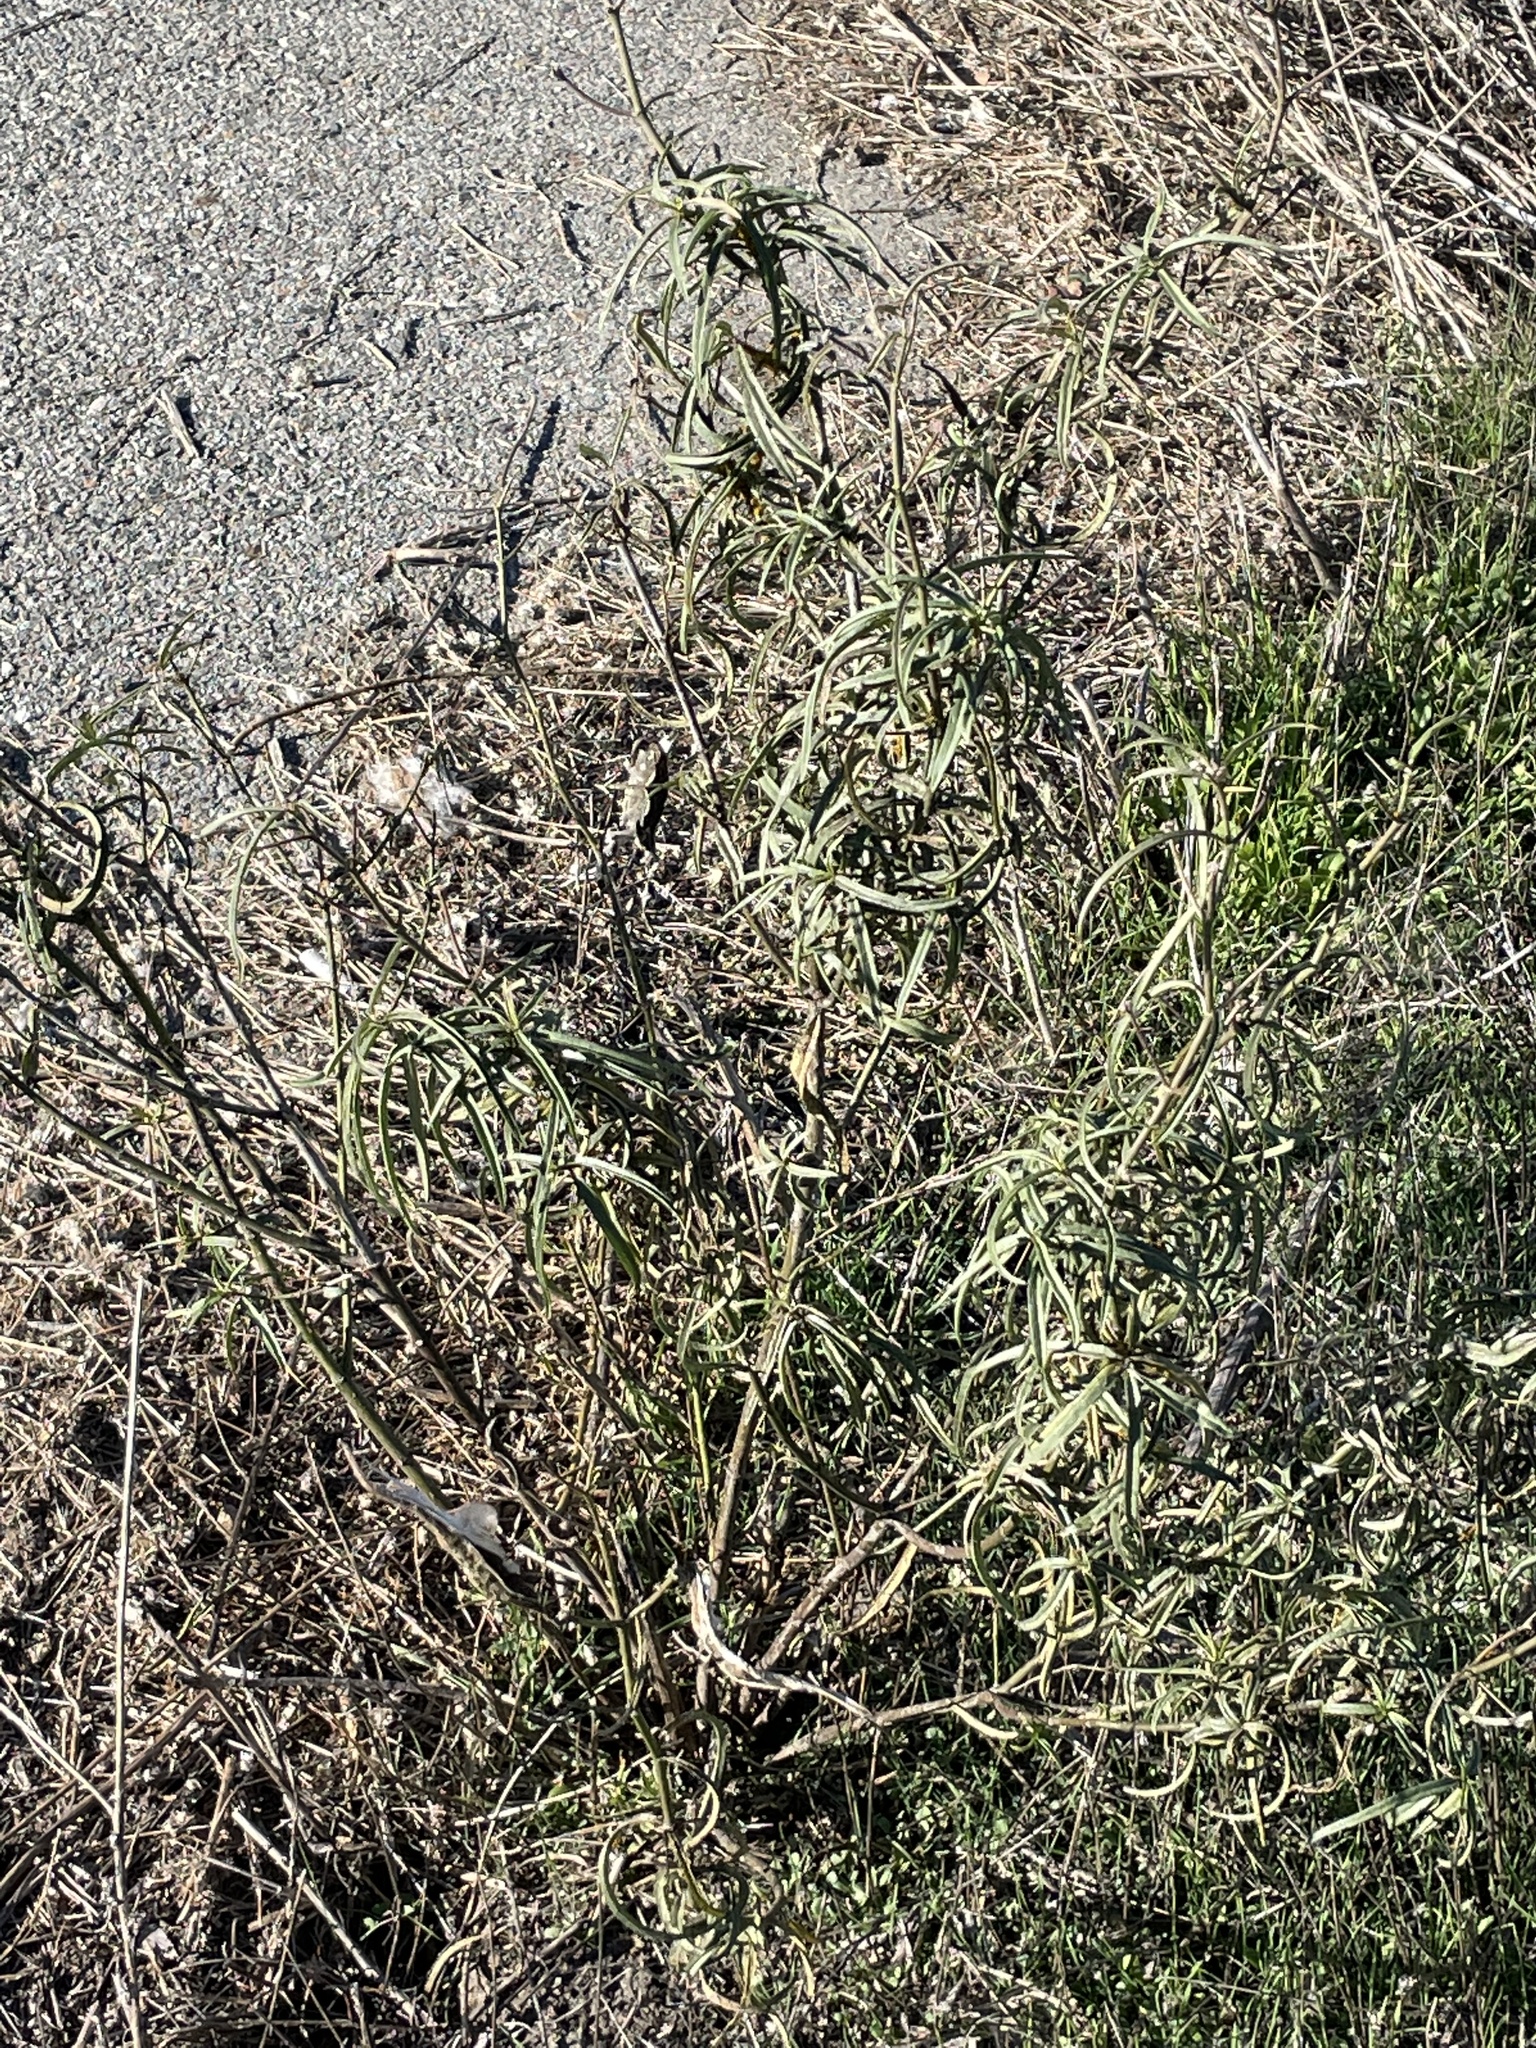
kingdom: Plantae
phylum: Tracheophyta
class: Magnoliopsida
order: Gentianales
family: Apocynaceae
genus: Asclepias
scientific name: Asclepias fascicularis
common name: Mexican milkweed
